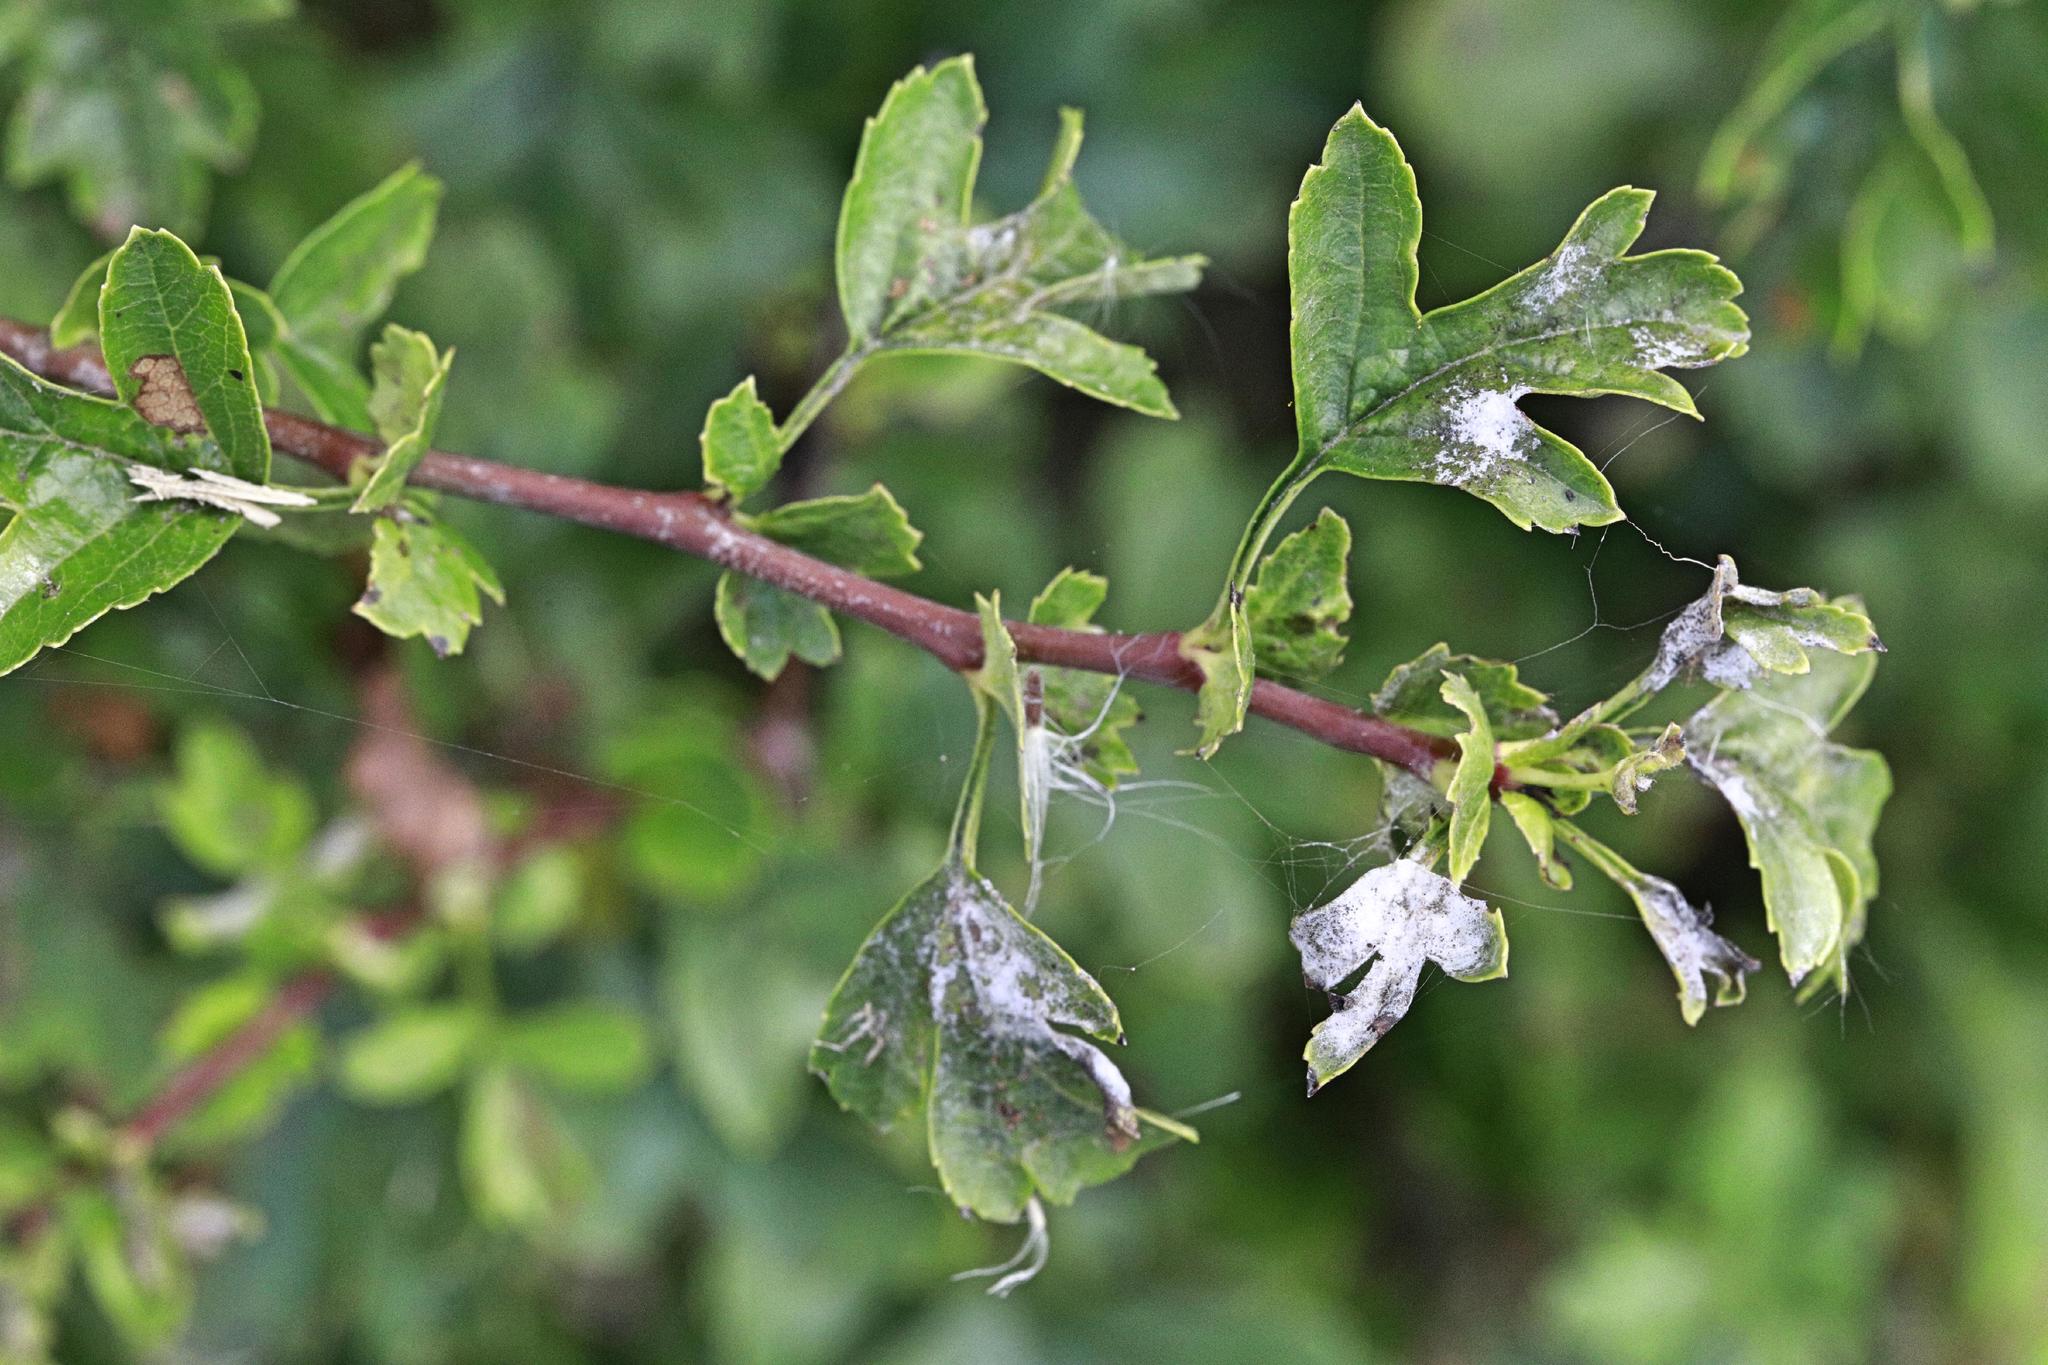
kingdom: Fungi
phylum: Ascomycota
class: Leotiomycetes
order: Helotiales
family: Erysiphaceae
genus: Podosphaera
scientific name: Podosphaera clandestina
